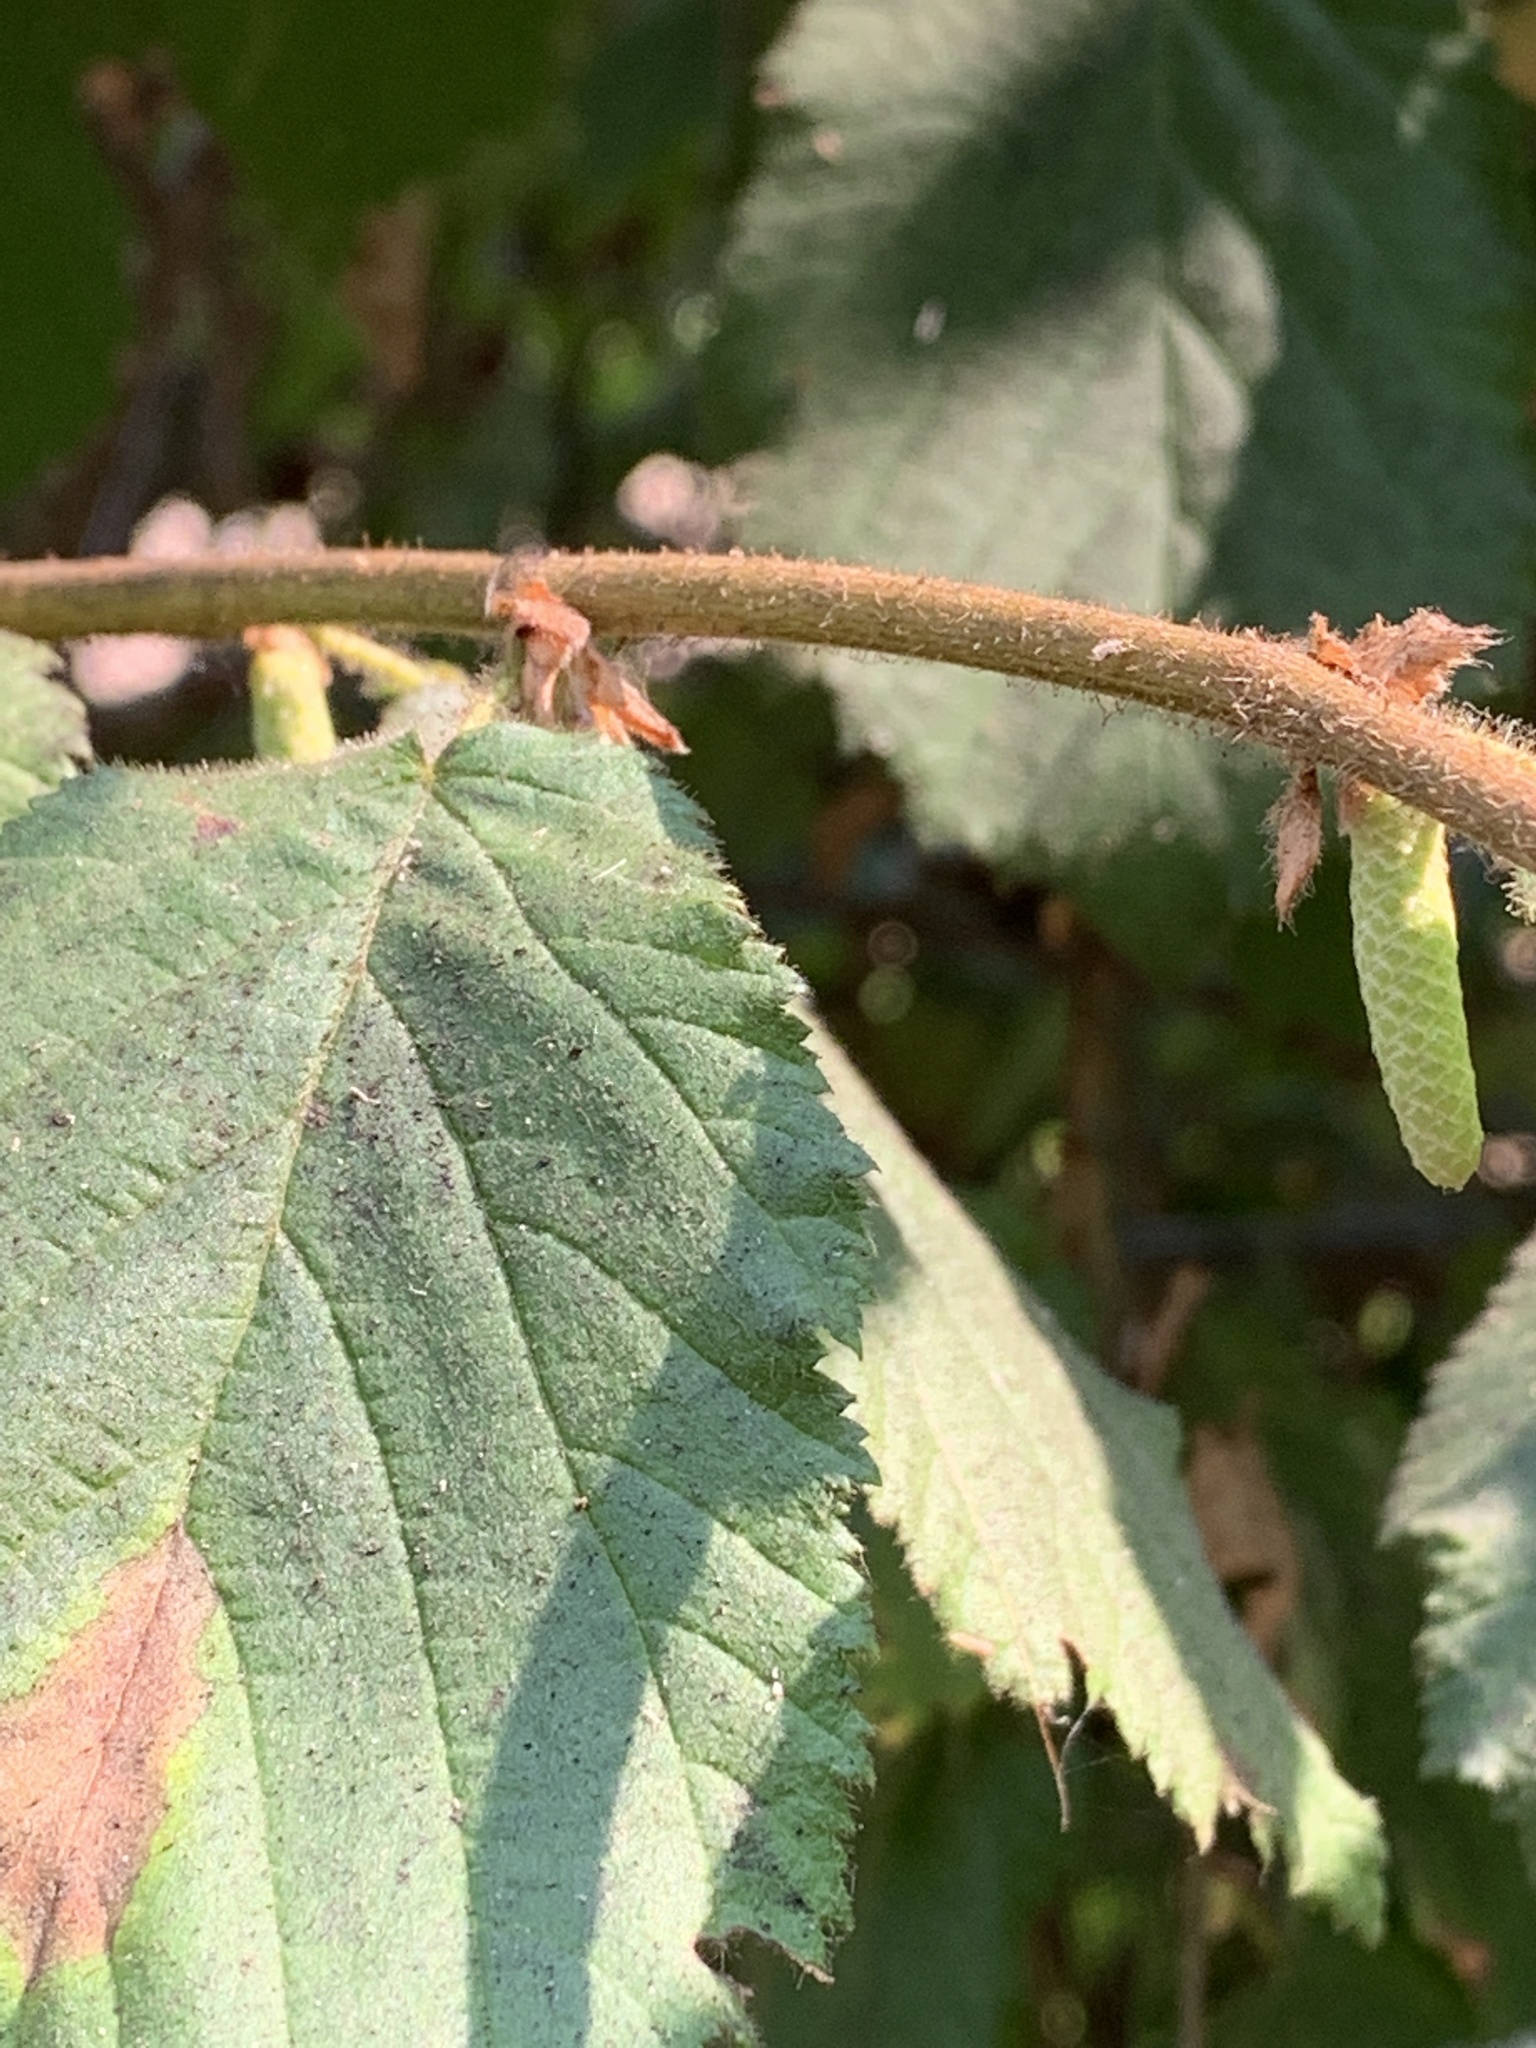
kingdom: Plantae
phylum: Tracheophyta
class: Magnoliopsida
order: Fagales
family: Betulaceae
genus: Corylus
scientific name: Corylus cornuta
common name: Beaked hazel
